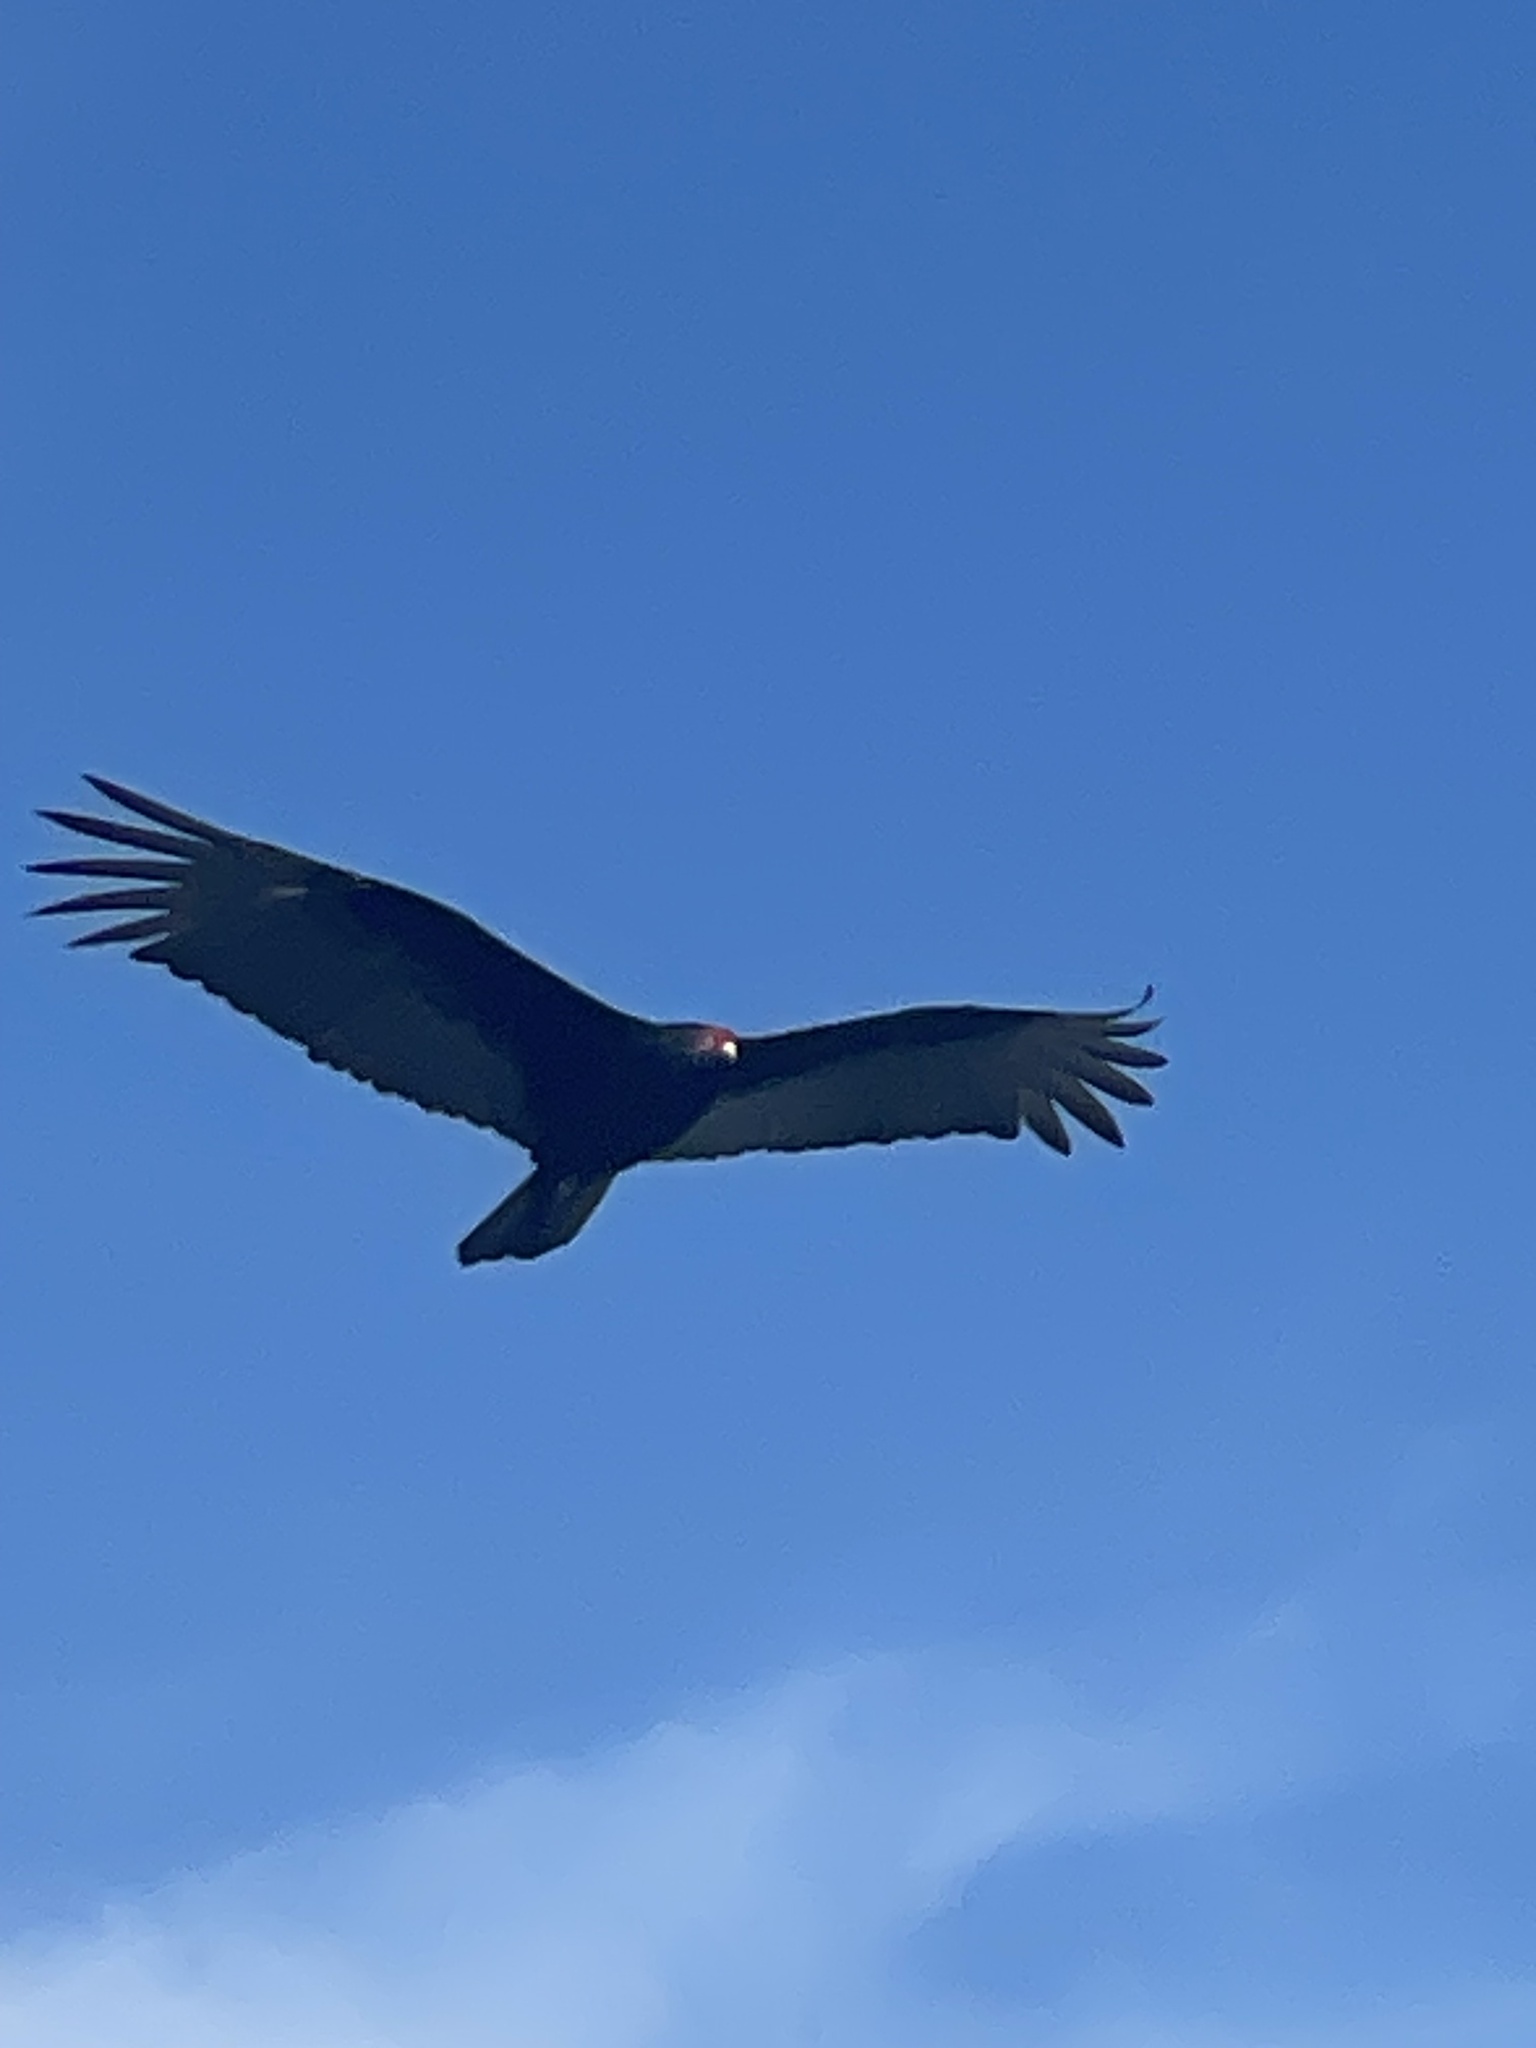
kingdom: Animalia
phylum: Chordata
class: Aves
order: Accipitriformes
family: Cathartidae
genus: Cathartes
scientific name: Cathartes aura
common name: Turkey vulture
